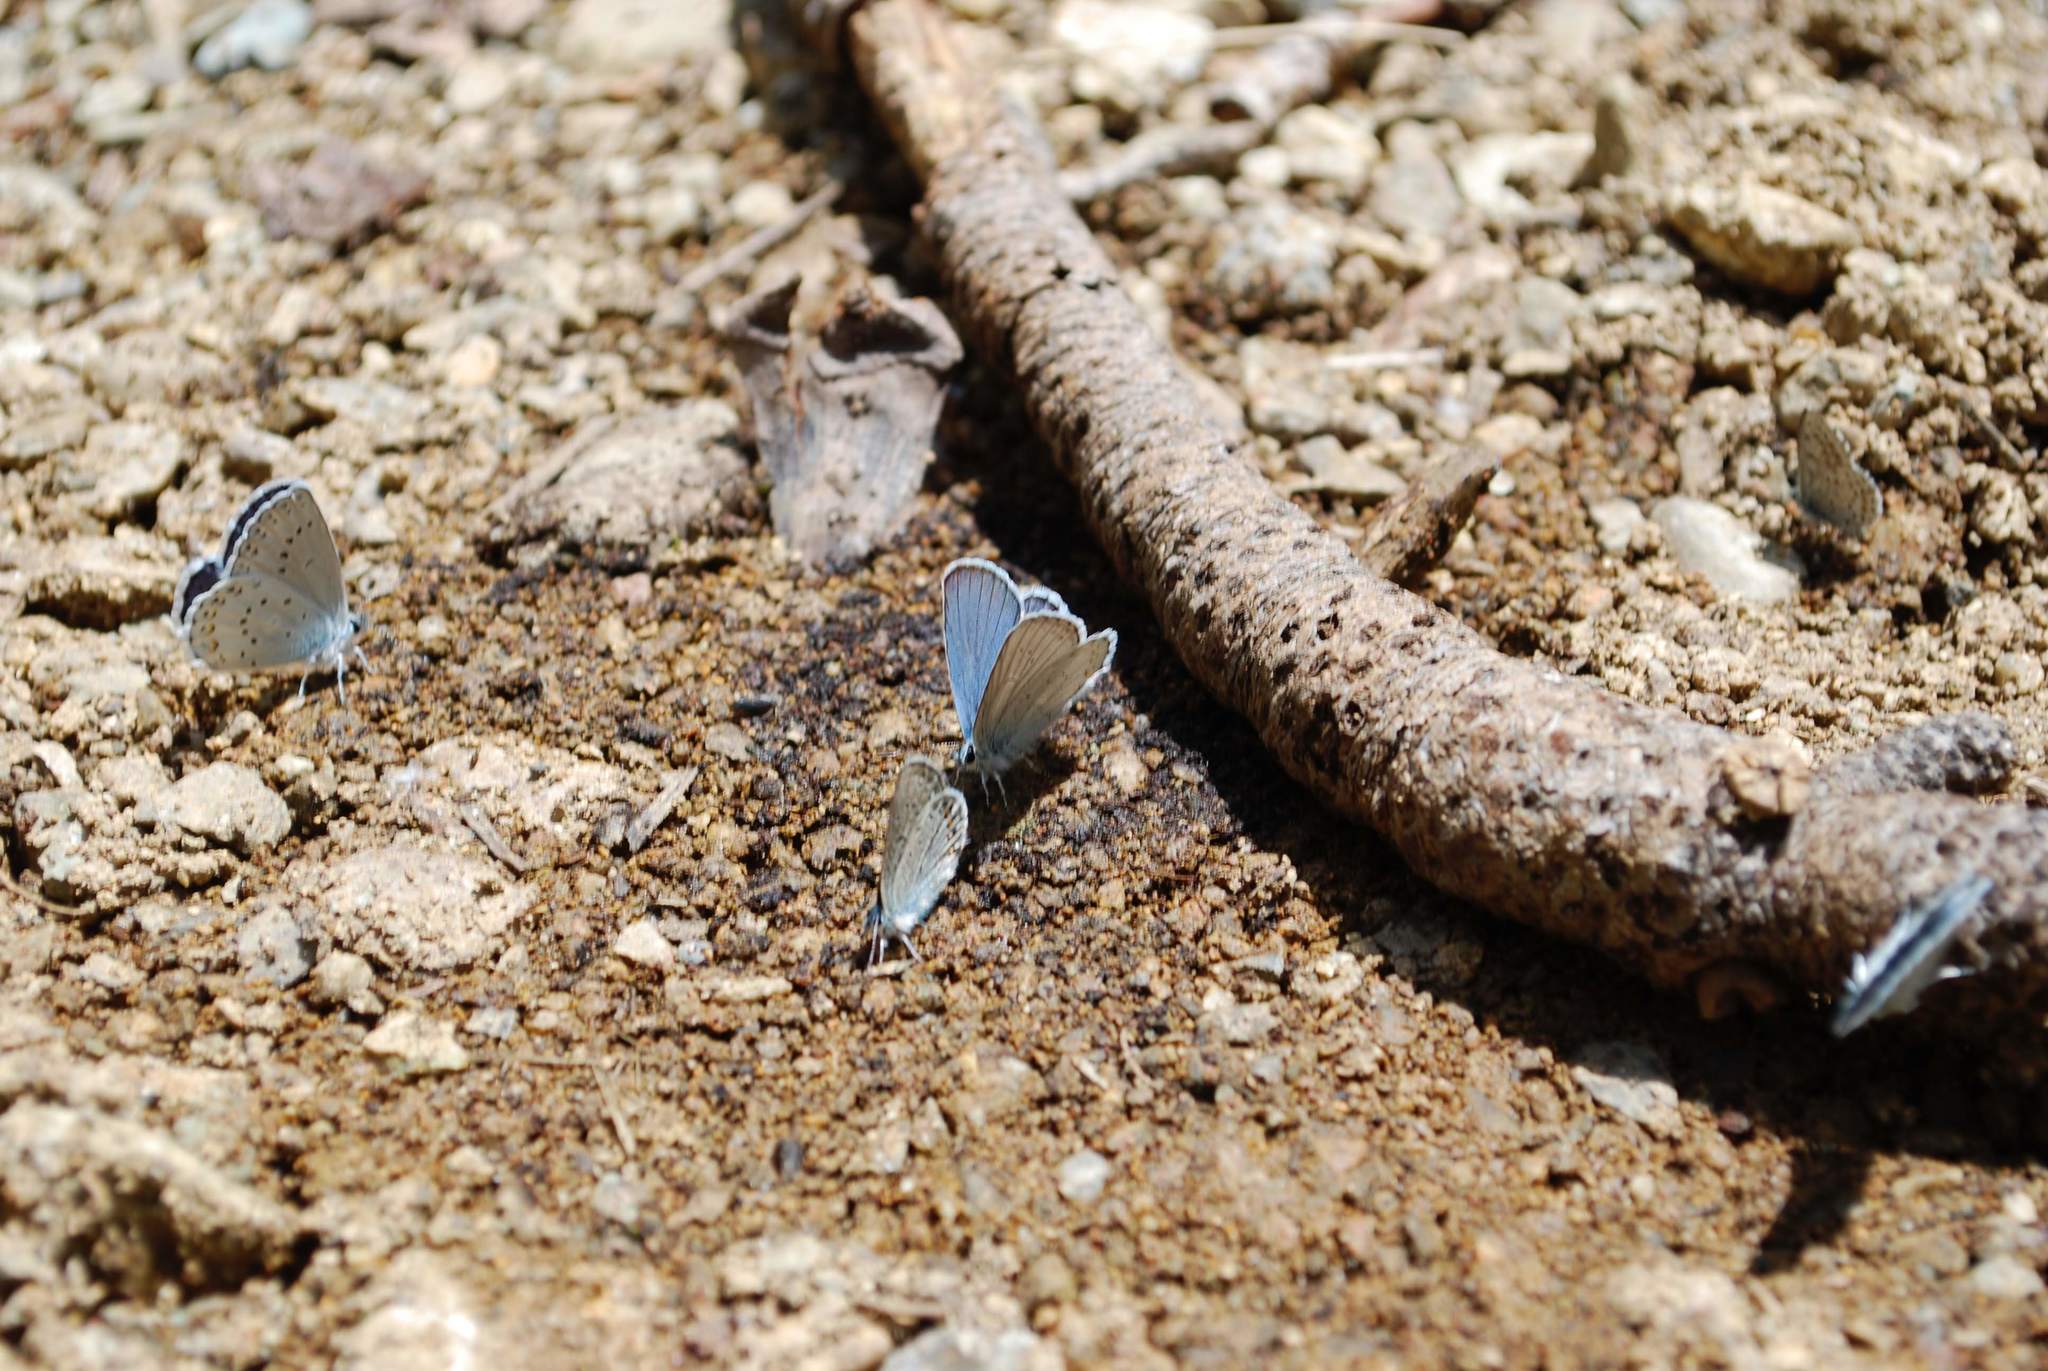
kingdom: Animalia
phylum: Arthropoda
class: Insecta
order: Lepidoptera
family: Lycaenidae
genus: Lycaeides
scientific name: Lycaeides anna
